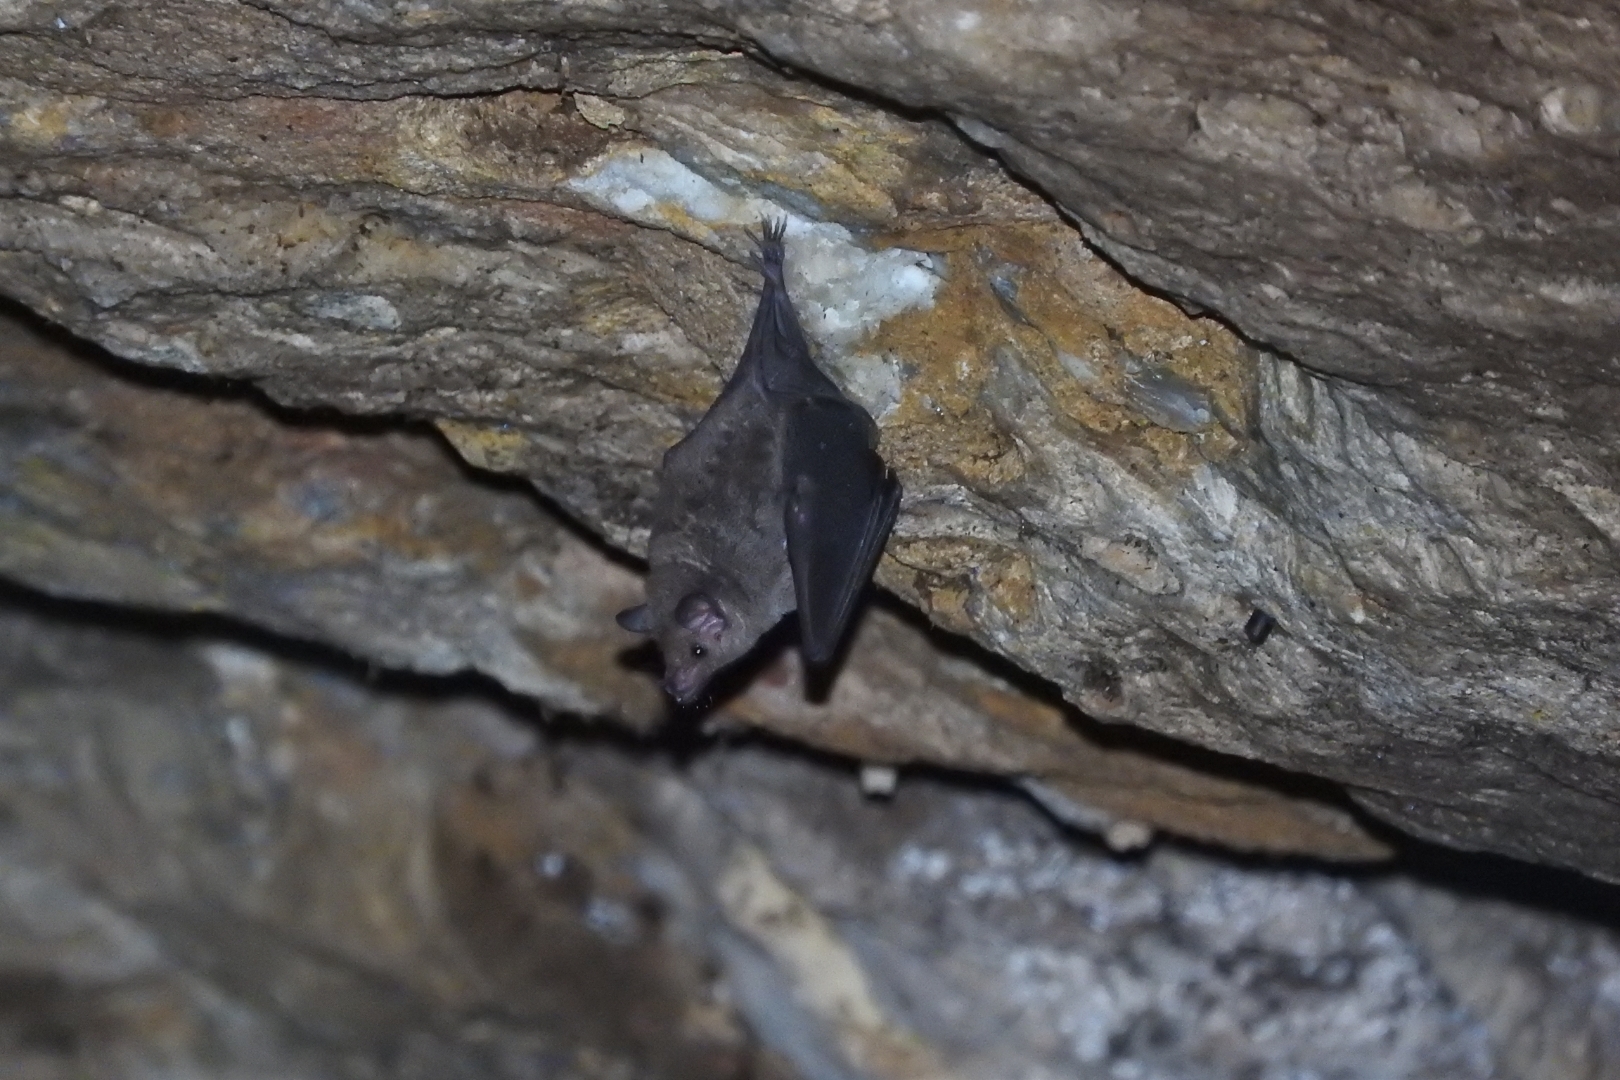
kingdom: Animalia
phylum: Chordata
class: Mammalia
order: Chiroptera
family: Phyllostomidae
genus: Glossophaga
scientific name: Glossophaga soricina
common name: Pallas's long-tongued bat
